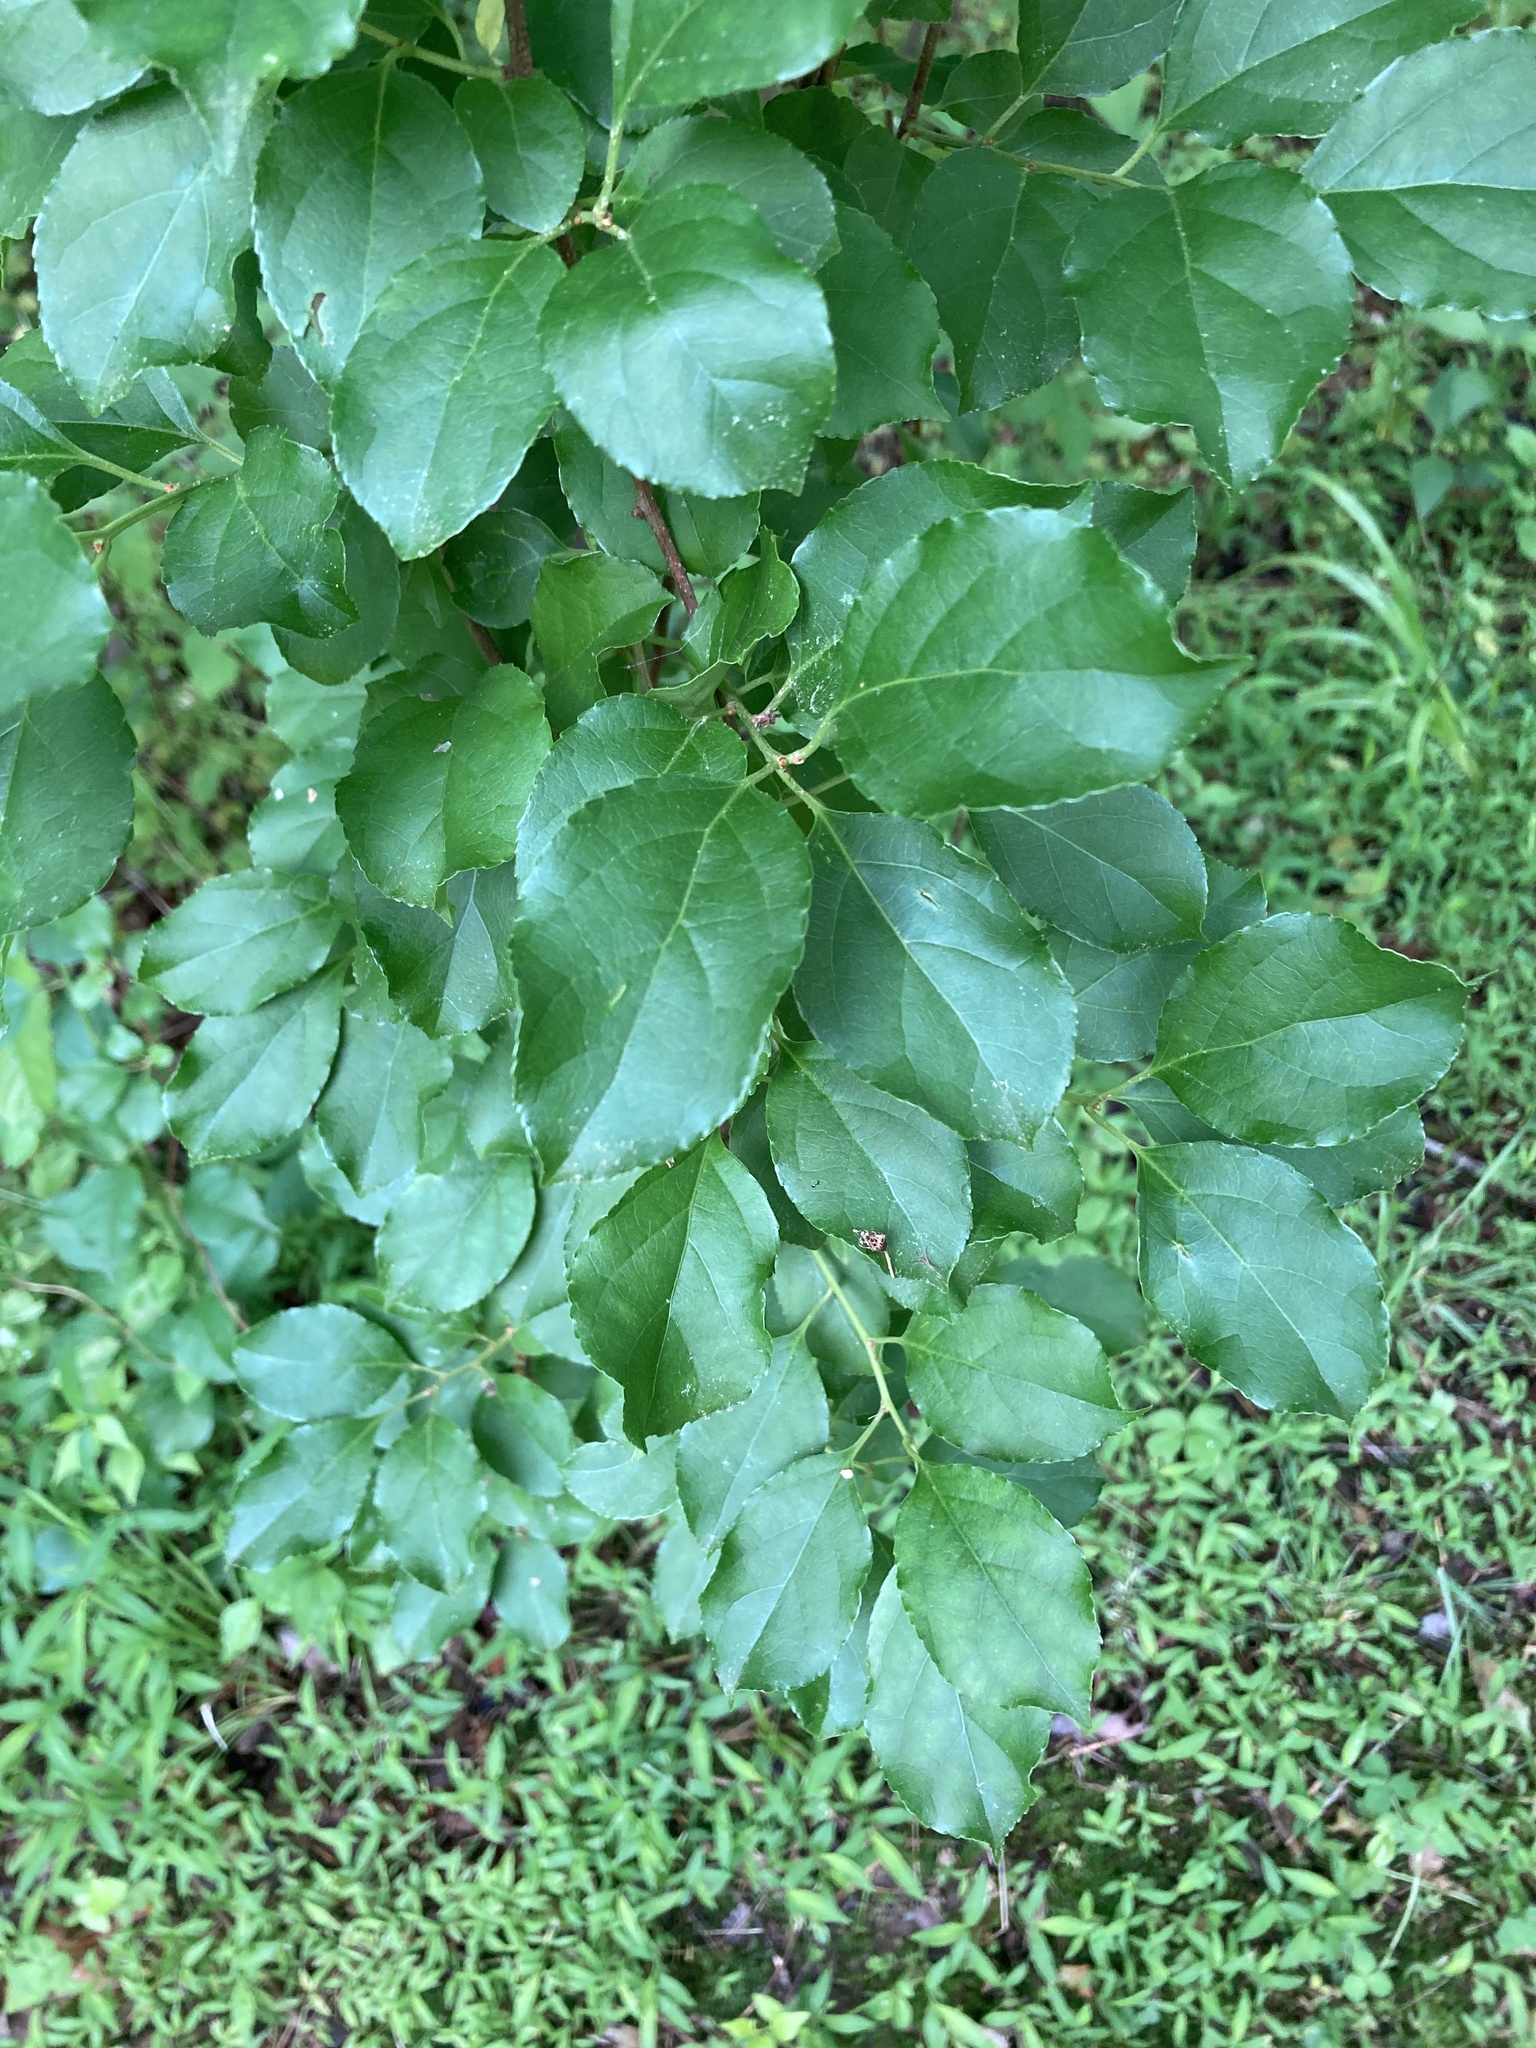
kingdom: Plantae
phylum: Tracheophyta
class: Magnoliopsida
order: Celastrales
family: Celastraceae
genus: Celastrus
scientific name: Celastrus orbiculatus
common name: Oriental bittersweet
